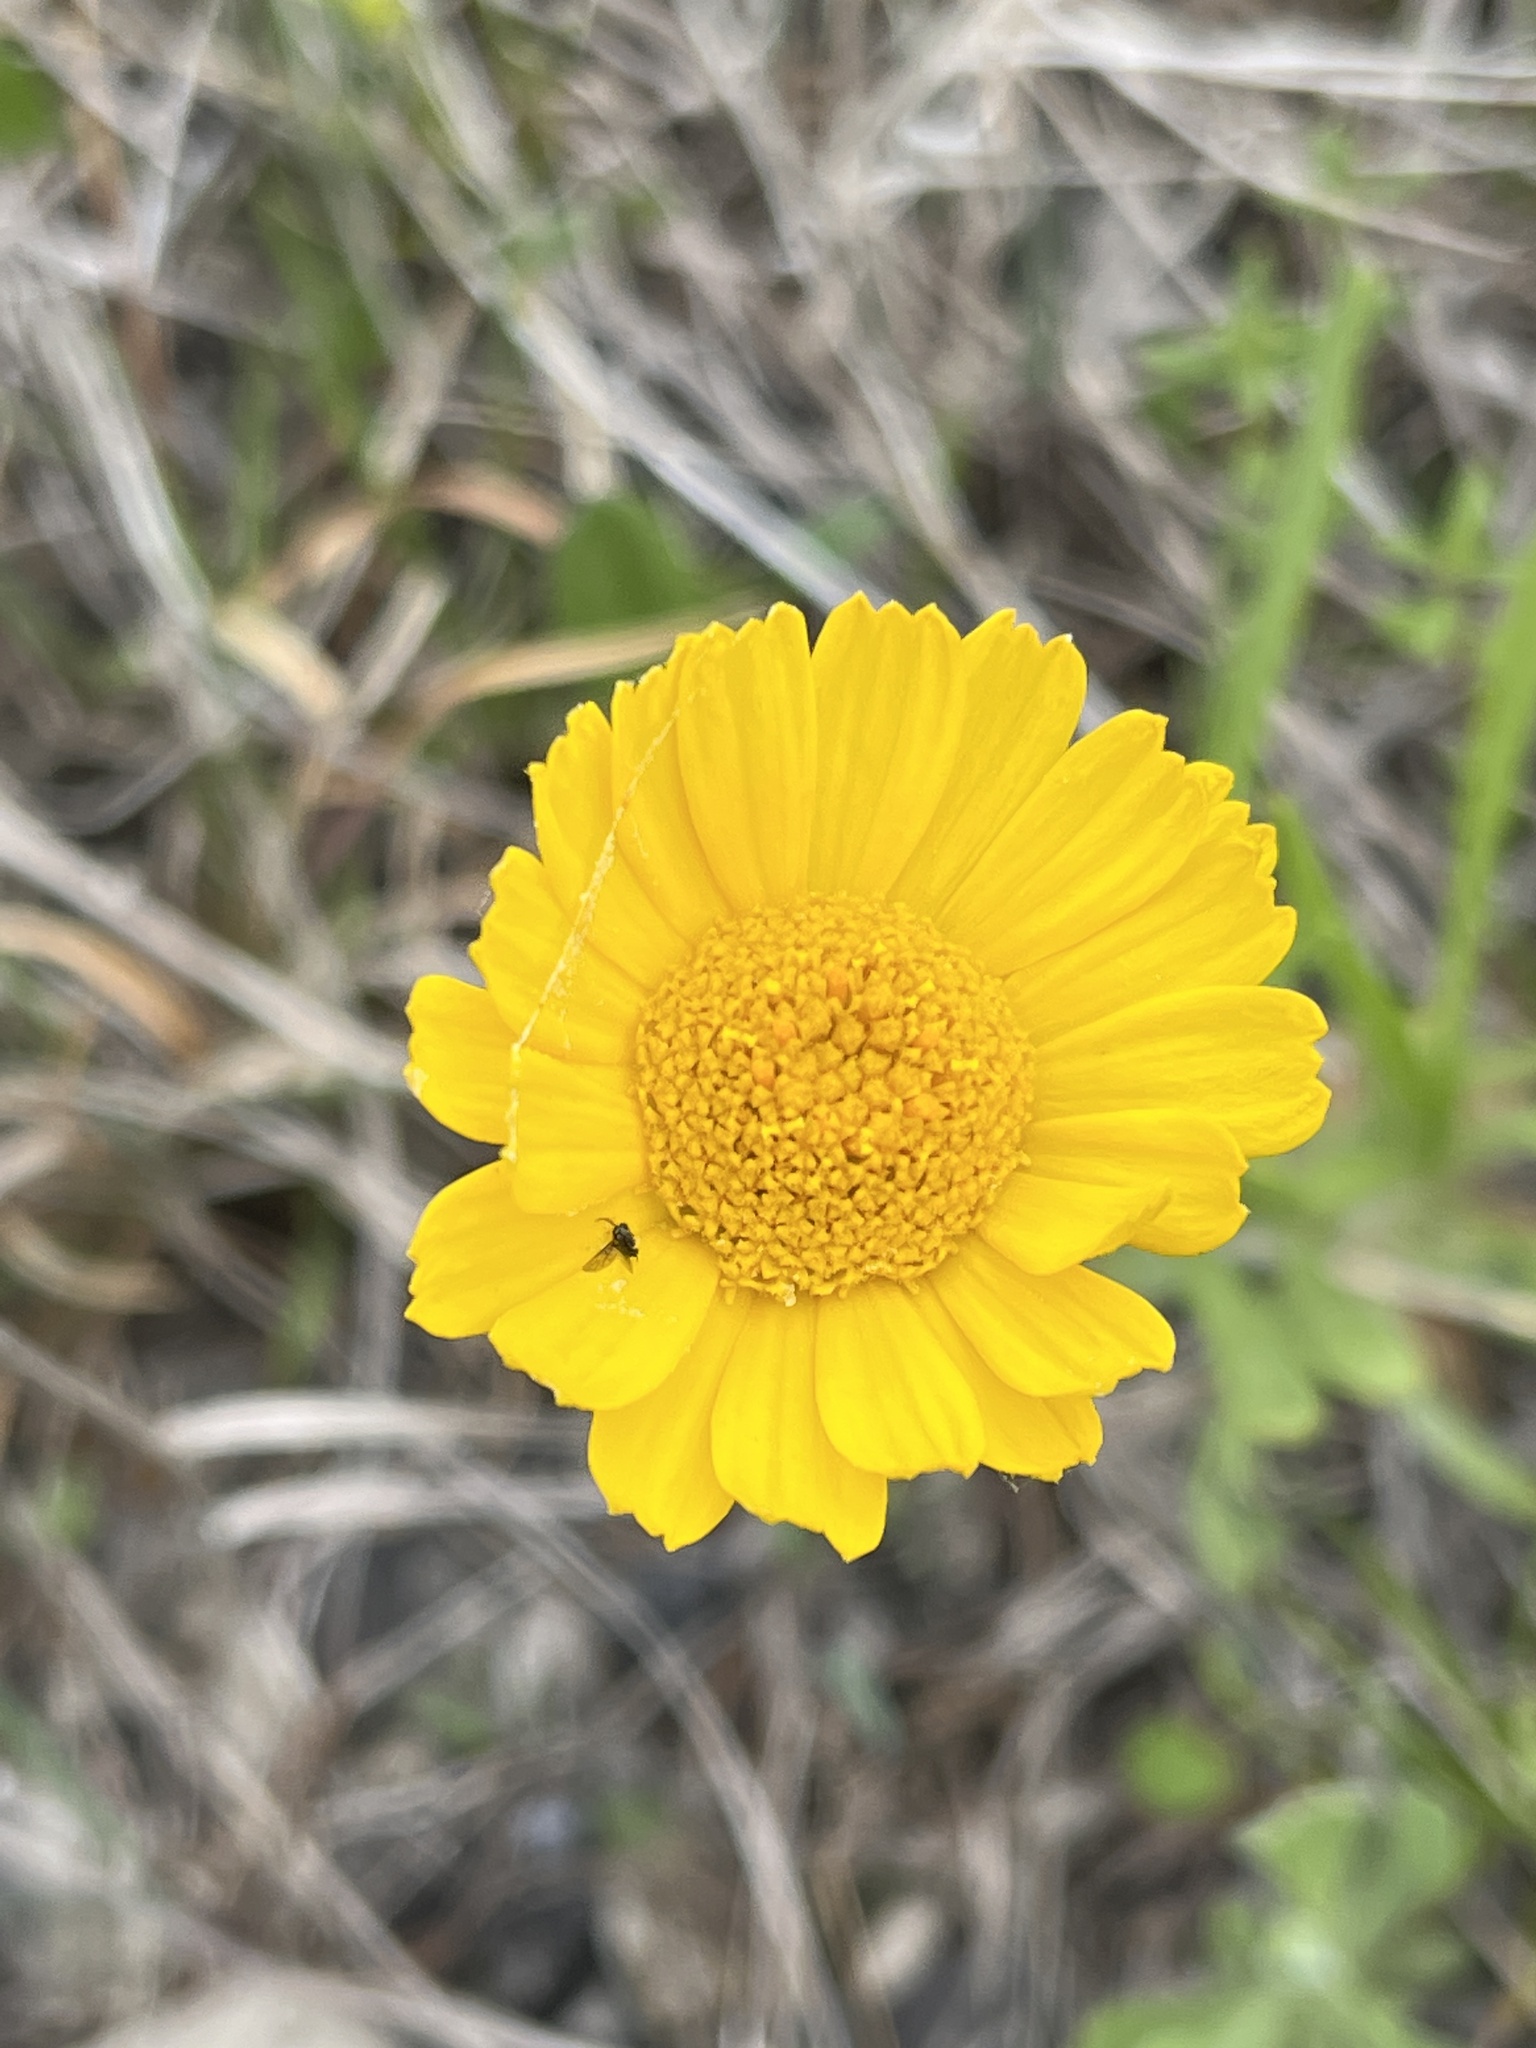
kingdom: Plantae
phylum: Tracheophyta
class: Magnoliopsida
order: Asterales
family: Asteraceae
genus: Tetraneuris
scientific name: Tetraneuris herbacea
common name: Lakeside daisy
